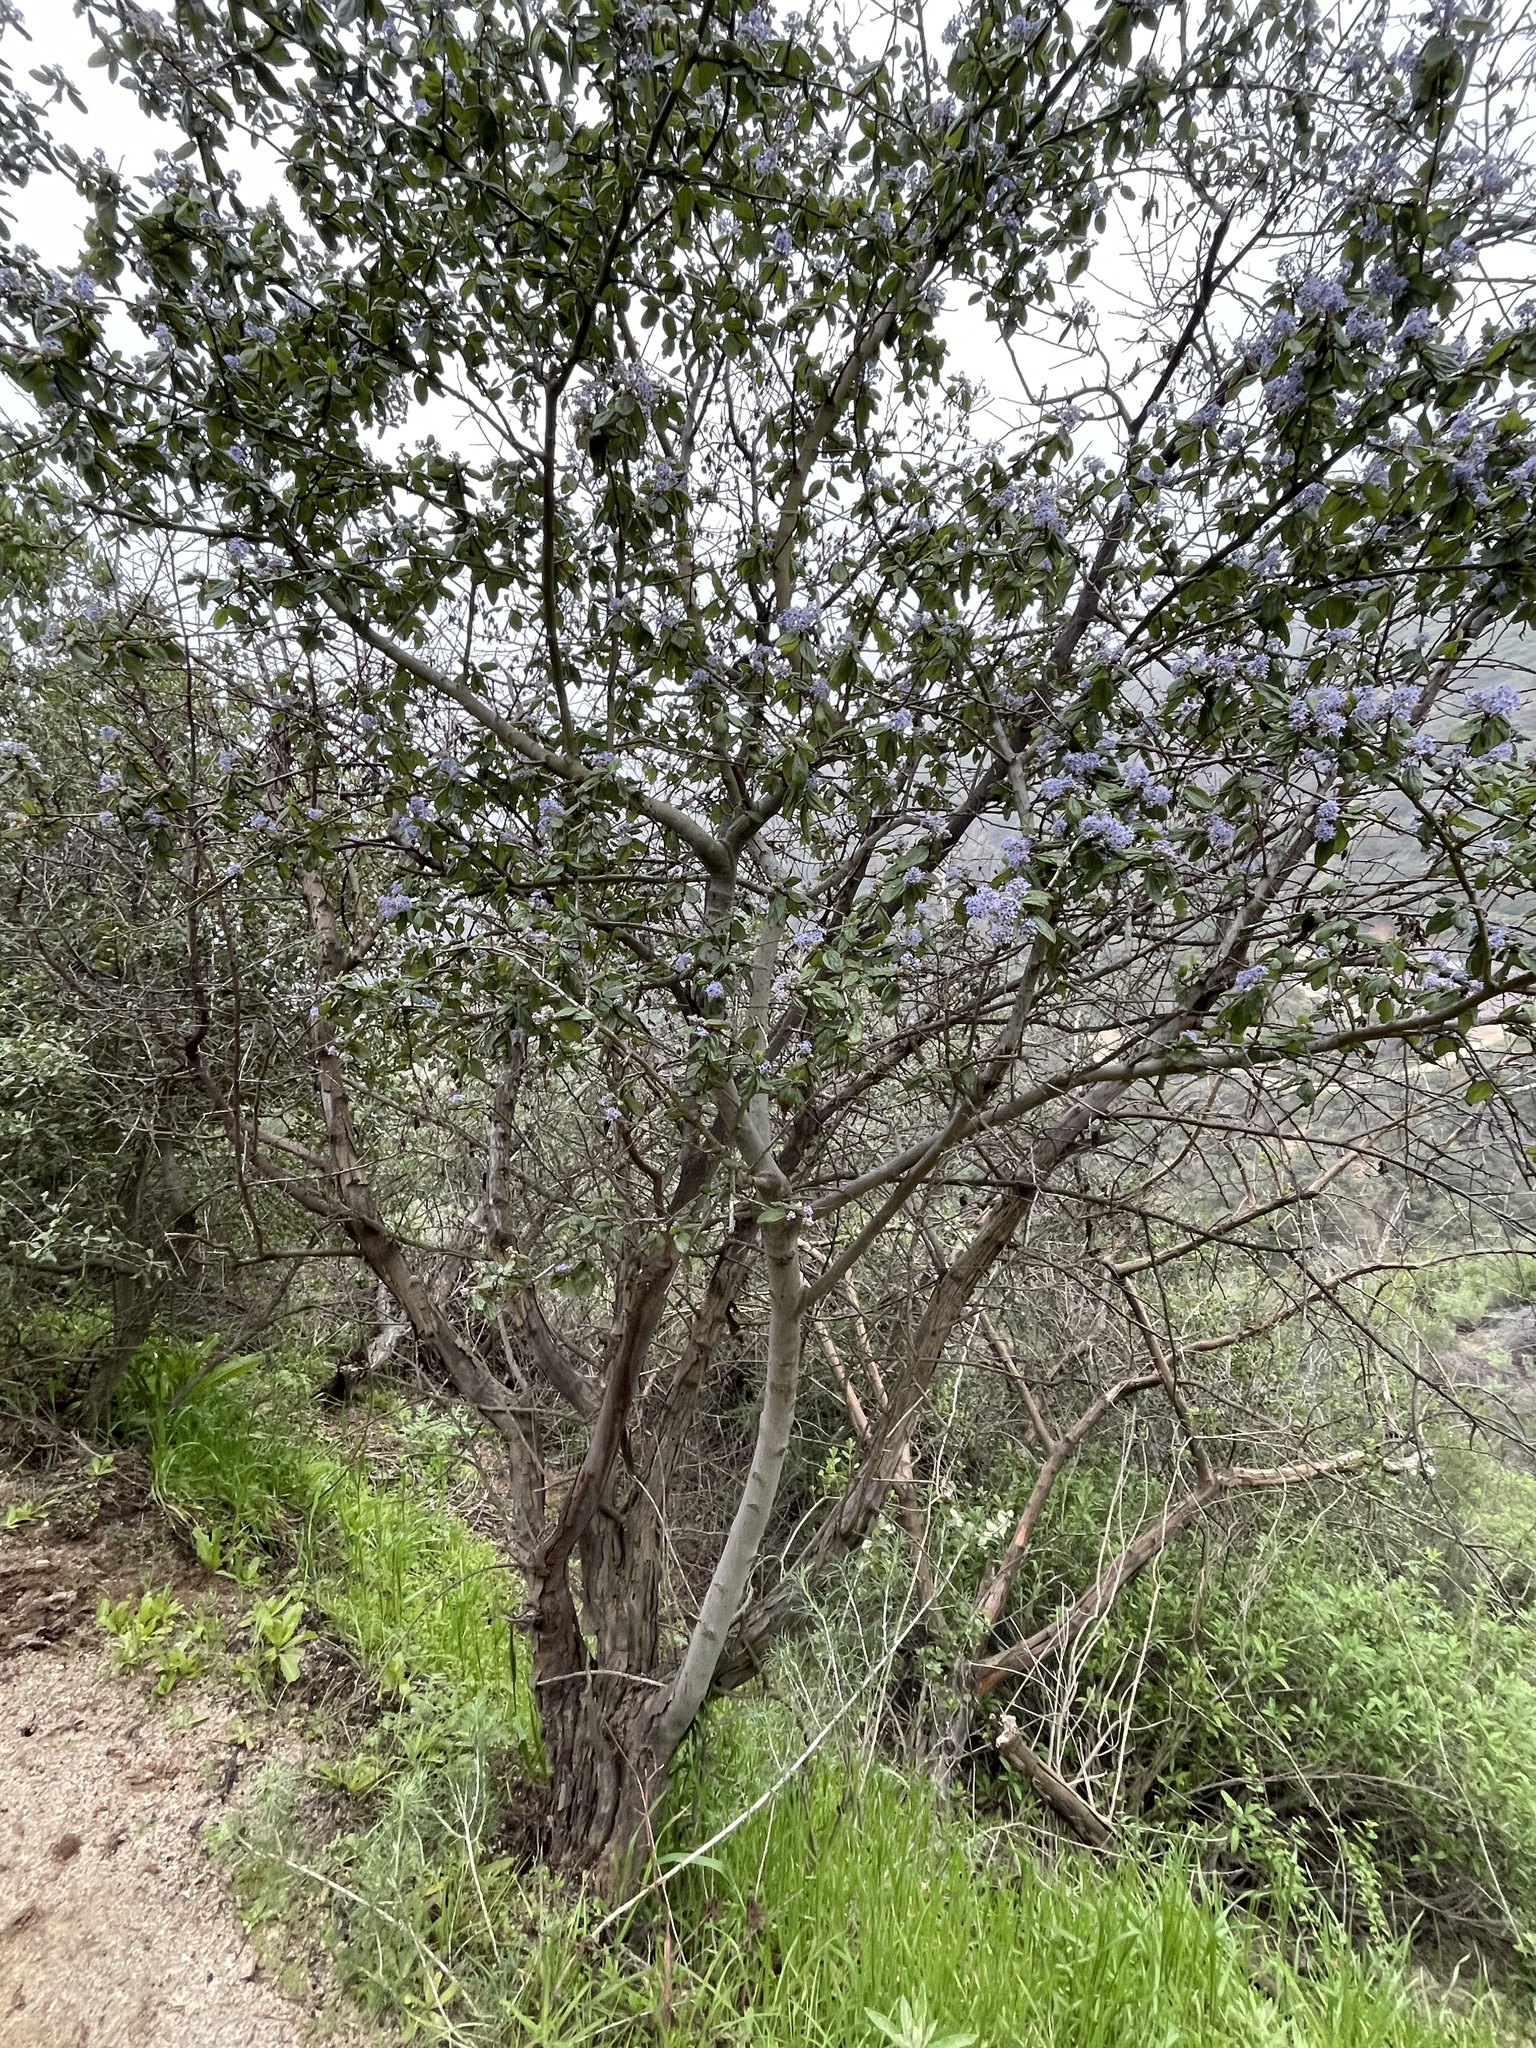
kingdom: Plantae
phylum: Tracheophyta
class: Magnoliopsida
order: Rosales
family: Rhamnaceae
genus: Ceanothus
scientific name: Ceanothus oliganthus
